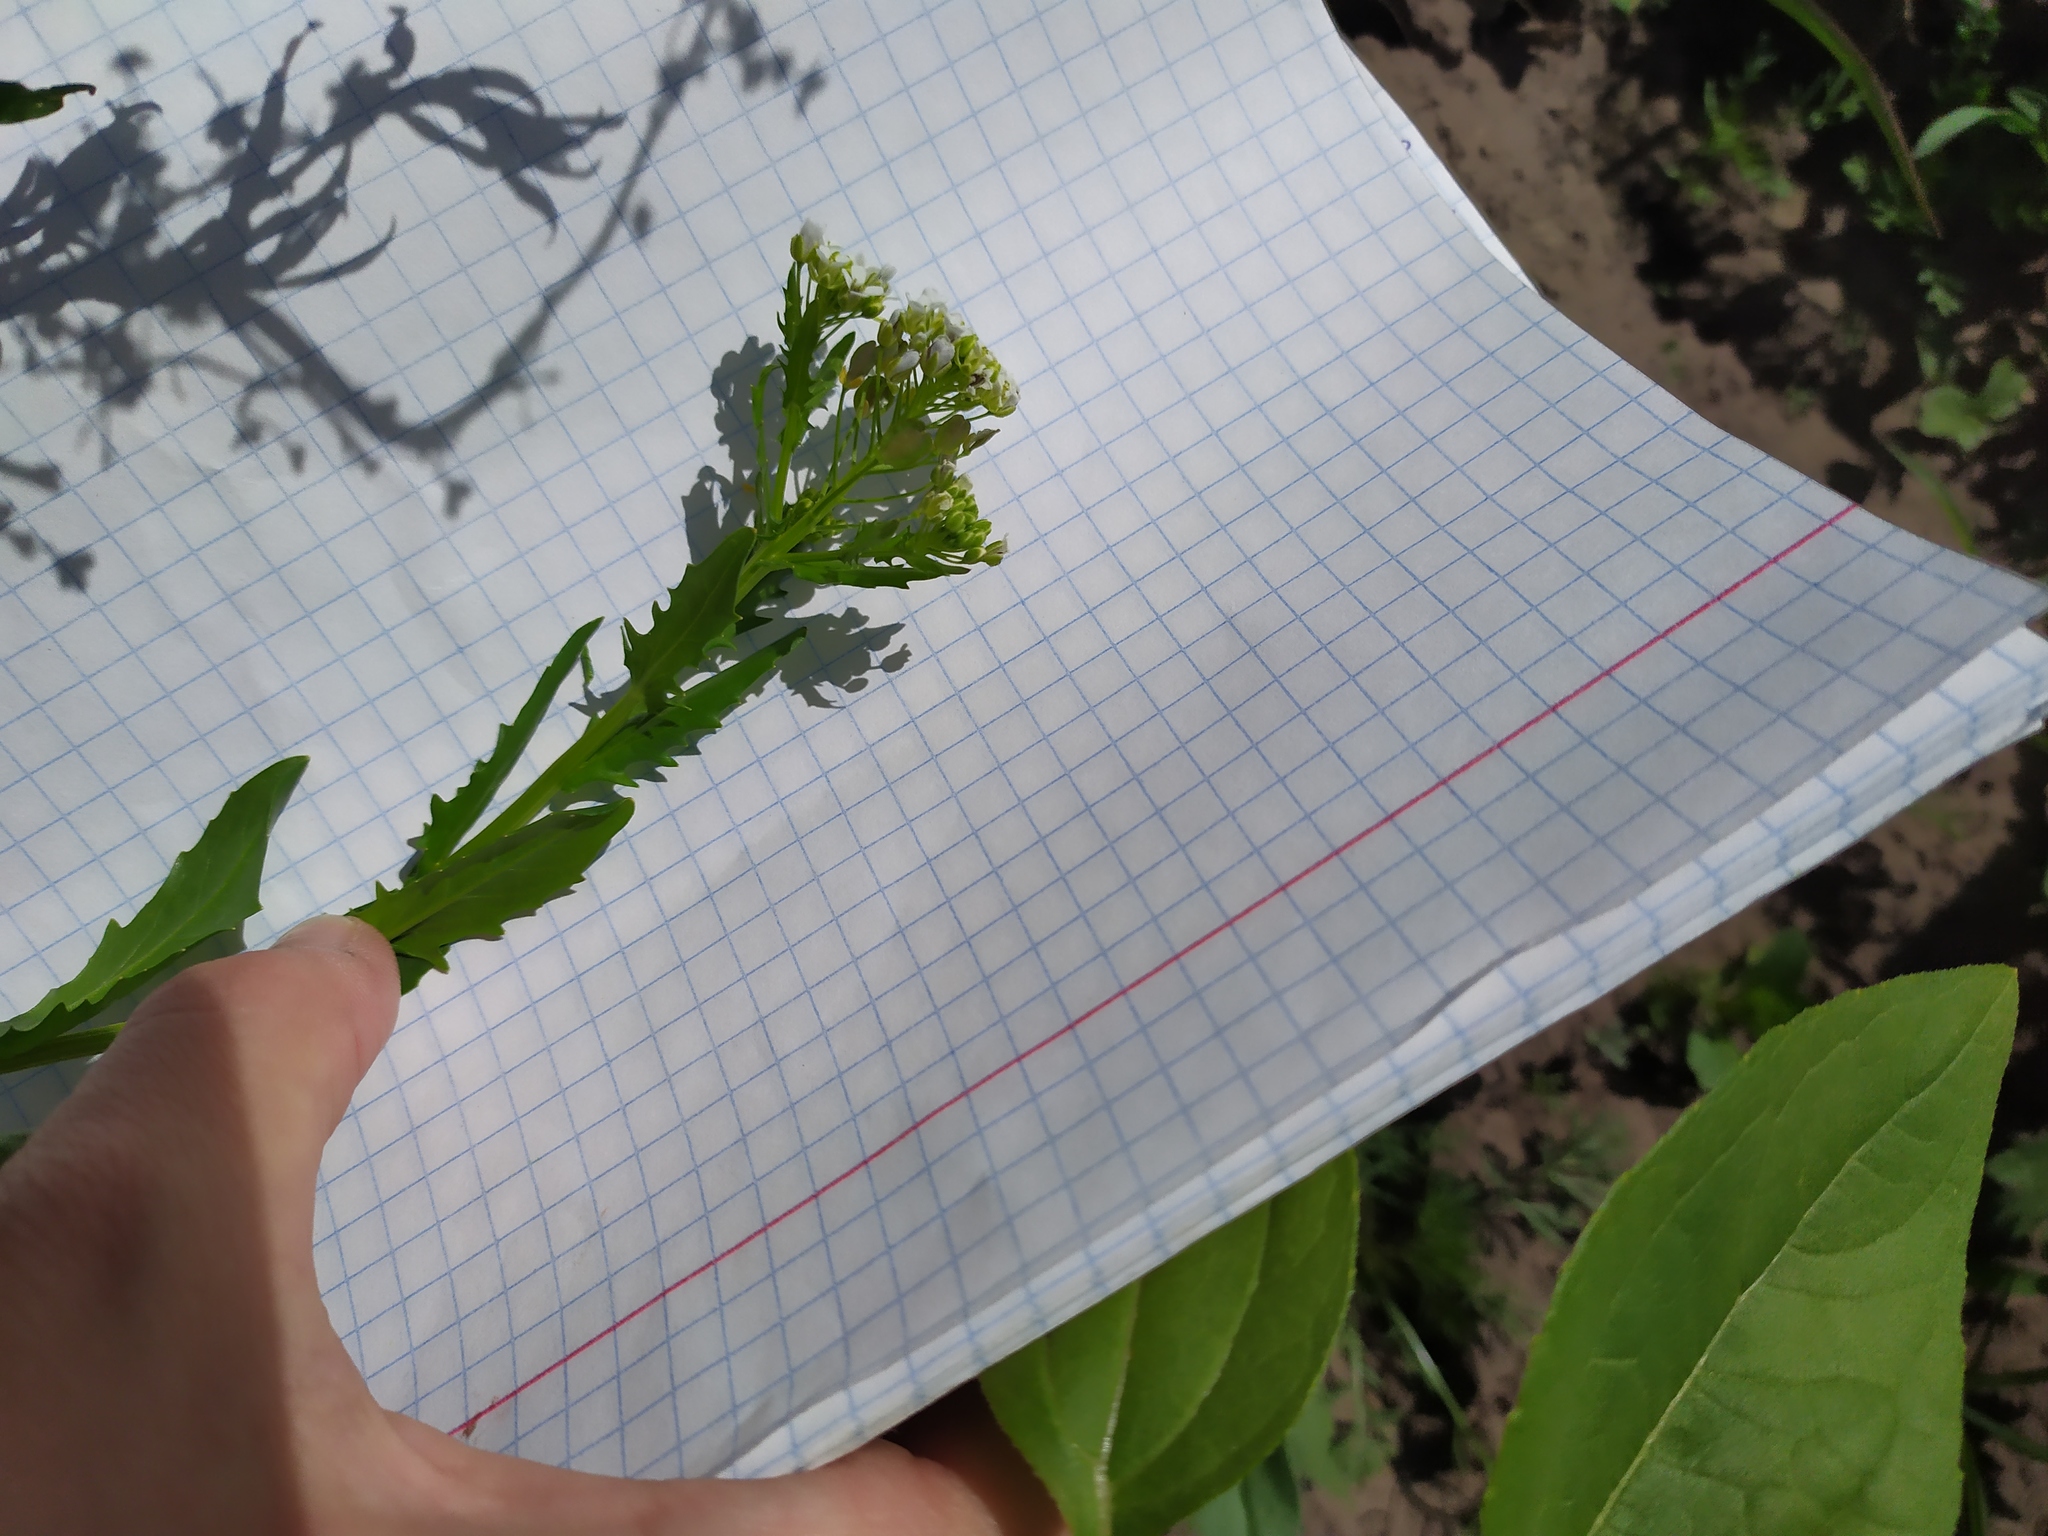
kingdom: Plantae
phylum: Tracheophyta
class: Magnoliopsida
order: Brassicales
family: Brassicaceae
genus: Thlaspi
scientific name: Thlaspi arvense
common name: Field pennycress
